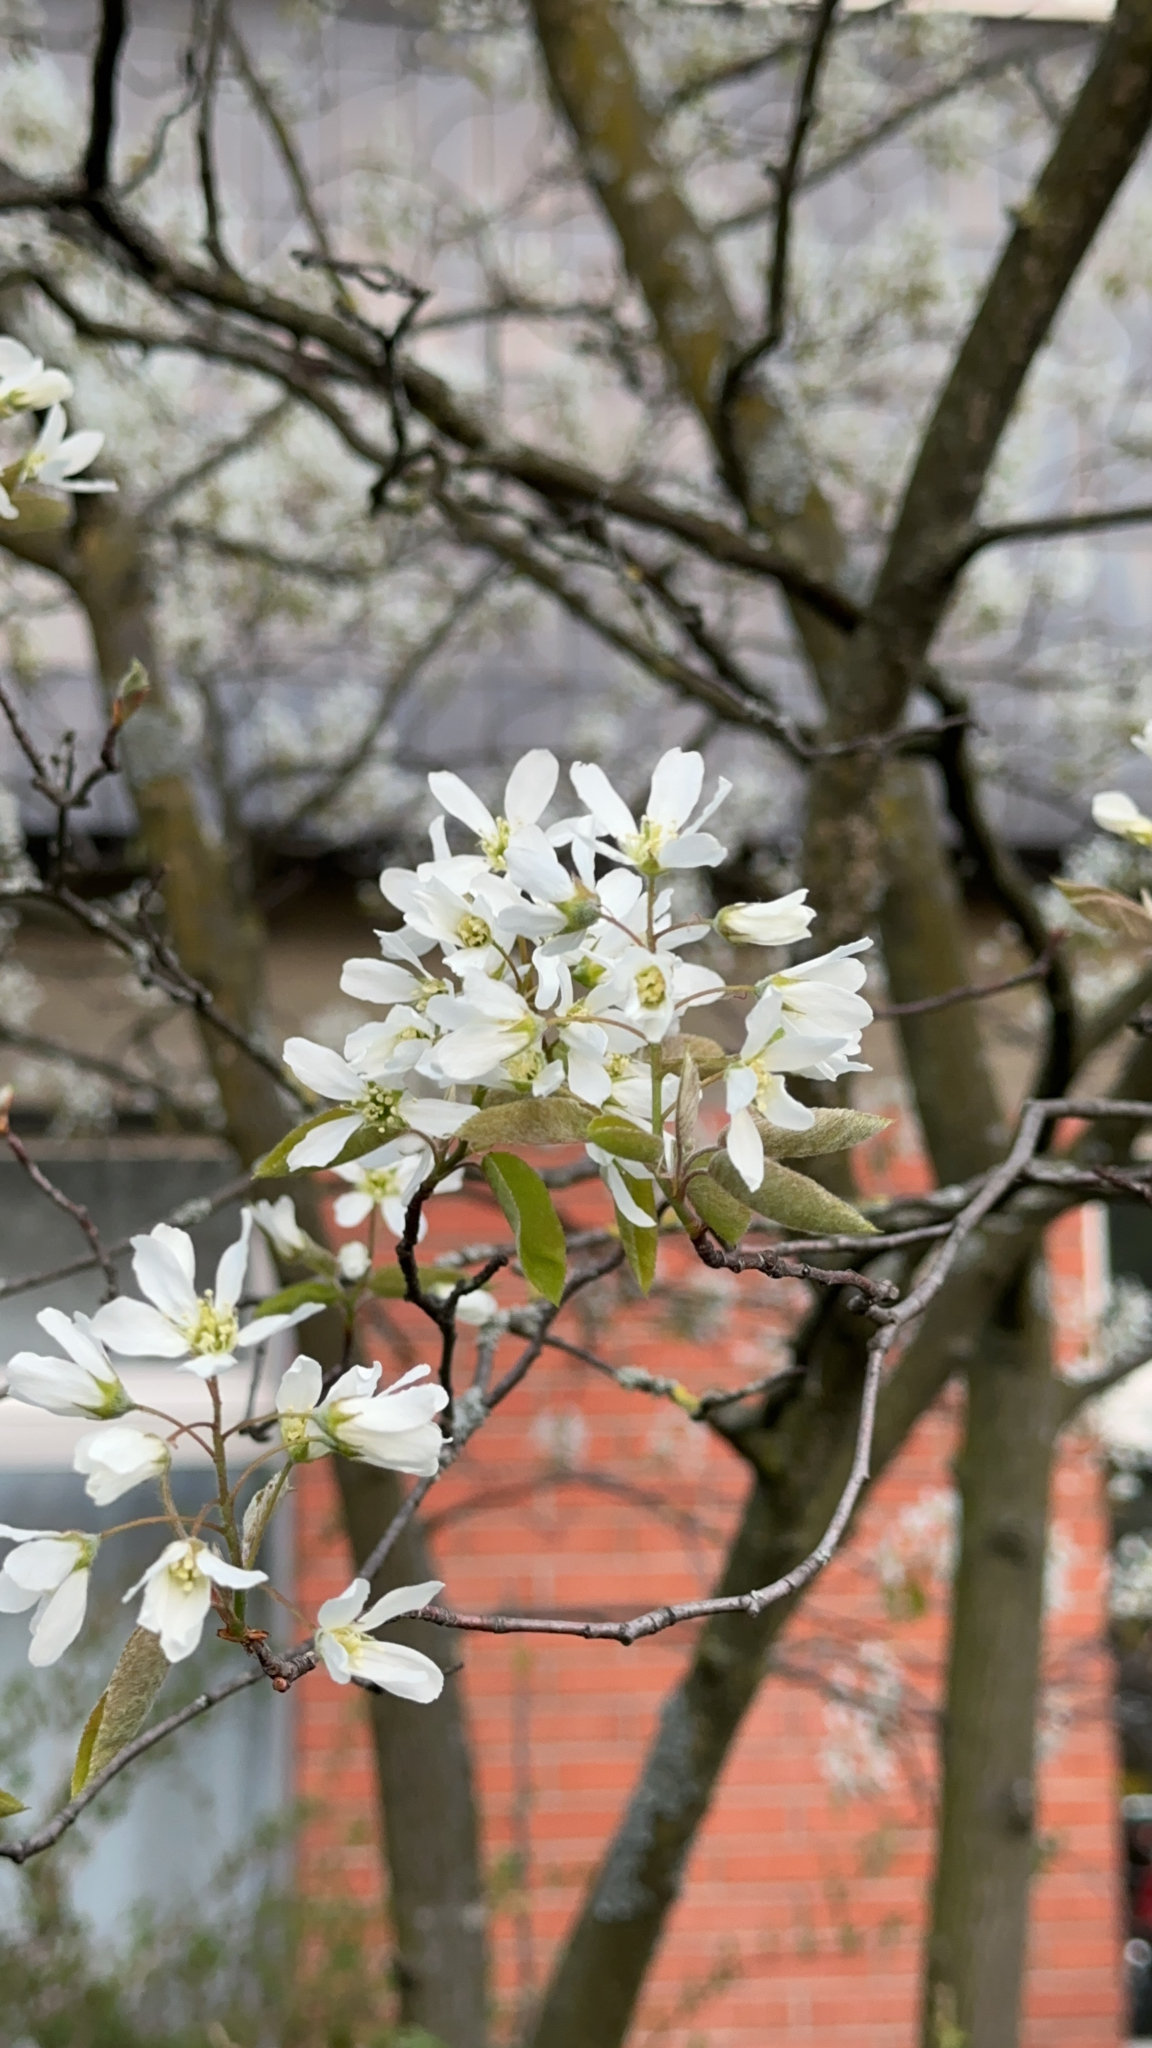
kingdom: Plantae
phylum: Tracheophyta
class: Magnoliopsida
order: Rosales
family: Rosaceae
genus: Amelanchier
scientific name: Amelanchier arborea
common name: Downy serviceberry
